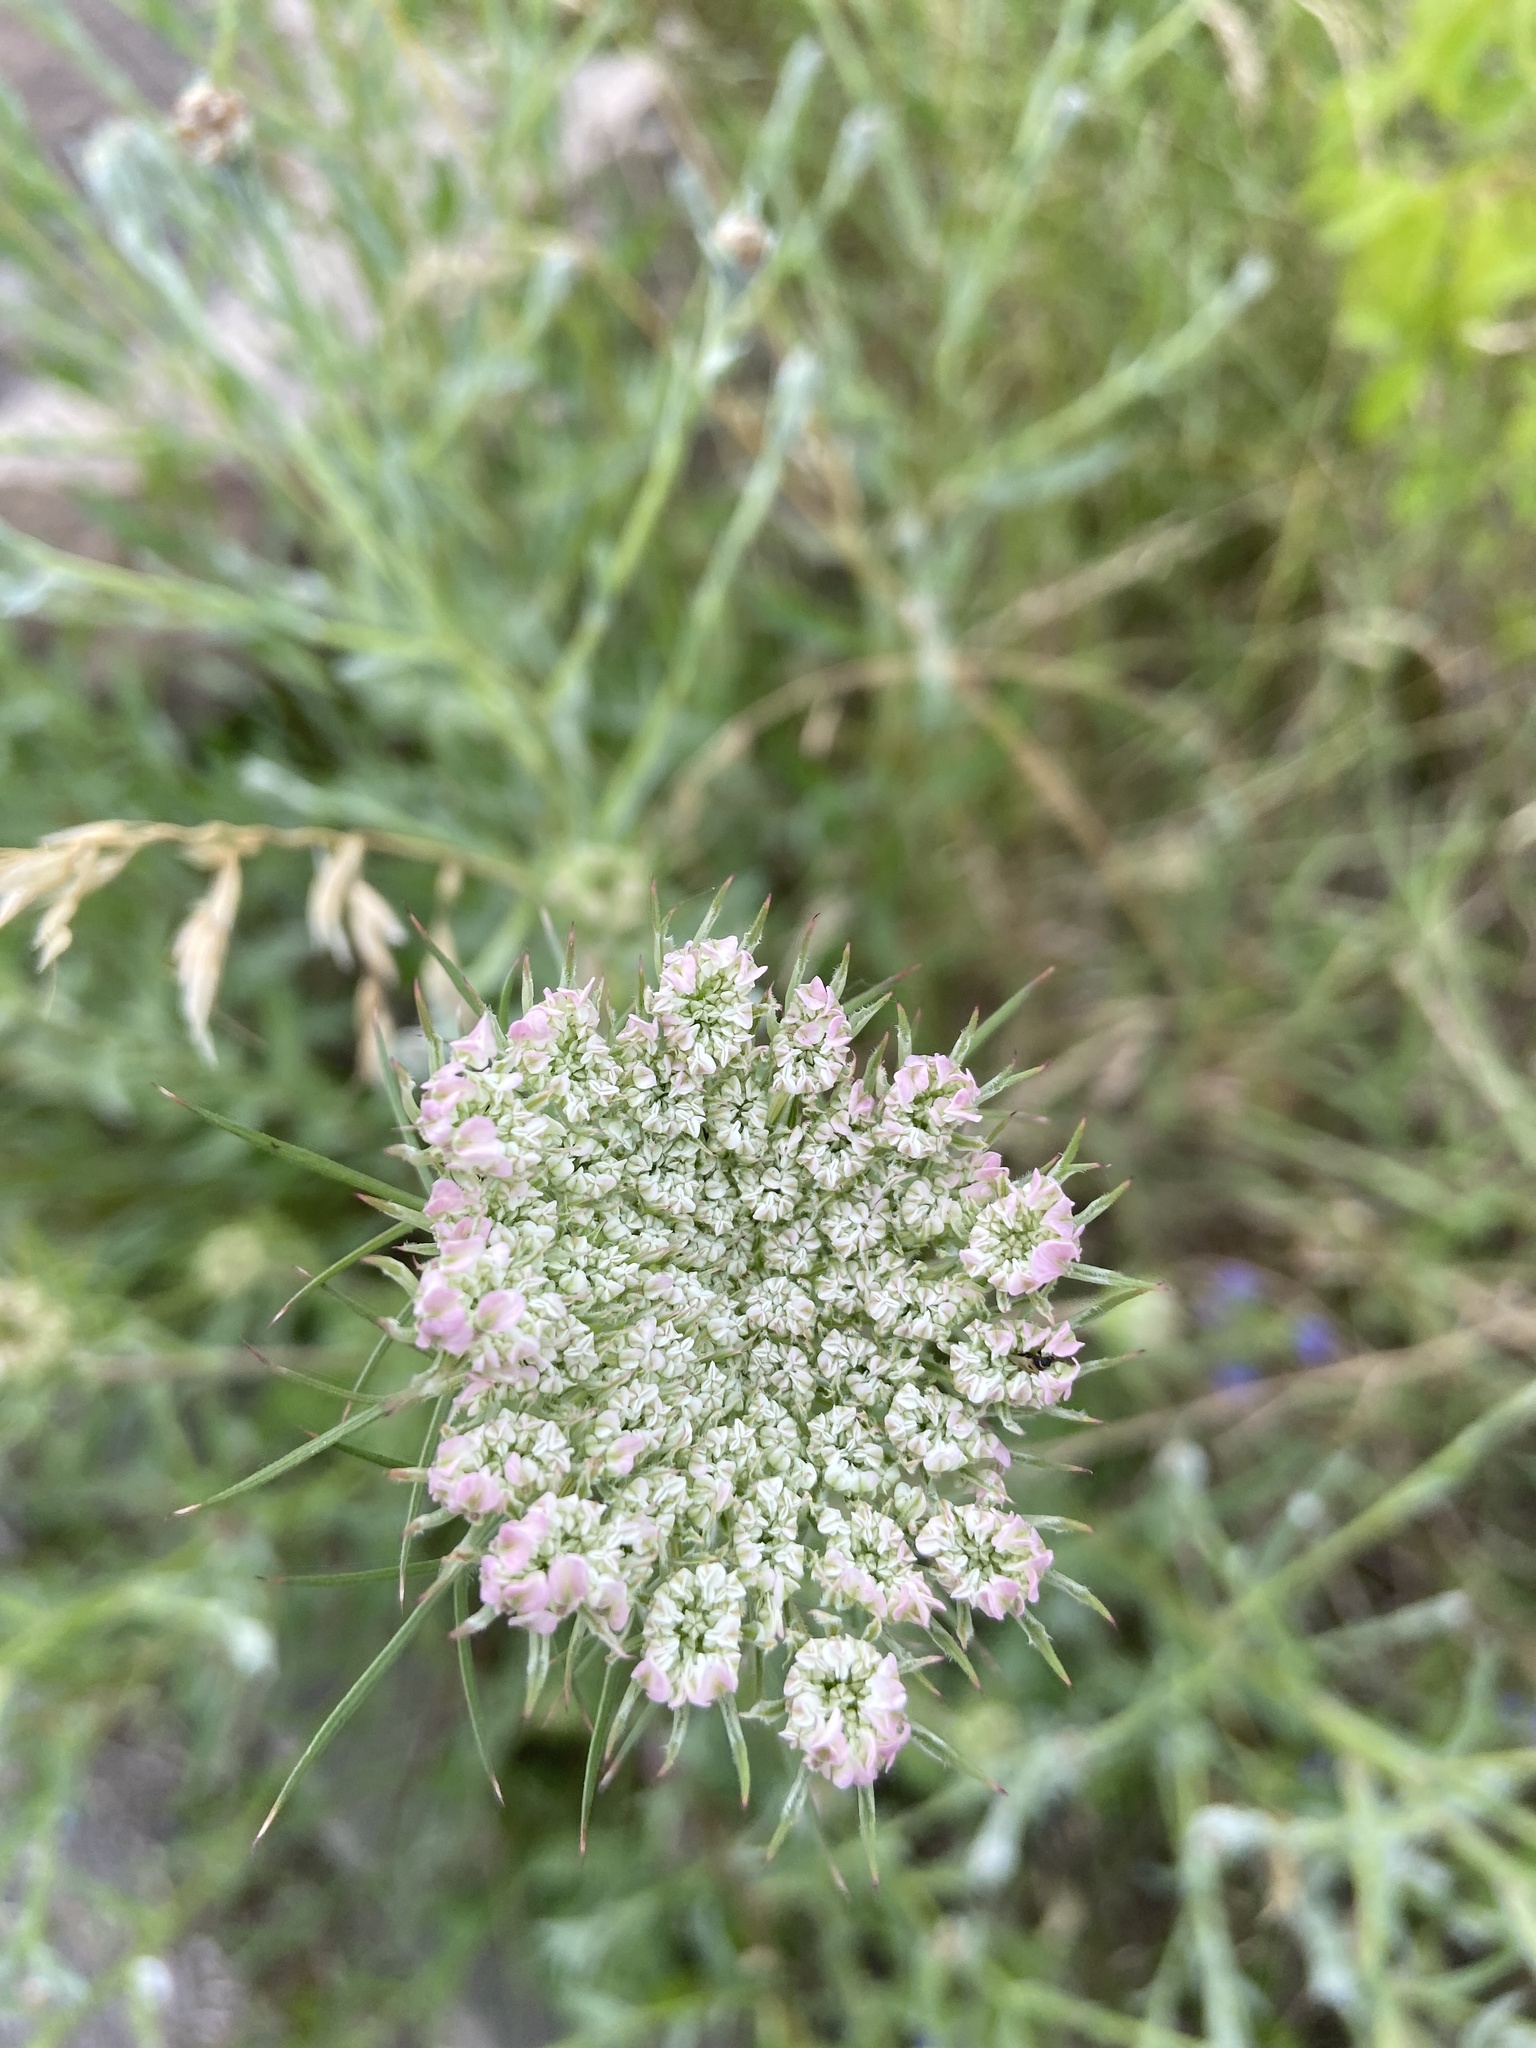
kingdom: Plantae
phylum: Tracheophyta
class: Magnoliopsida
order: Apiales
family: Apiaceae
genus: Daucus
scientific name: Daucus carota
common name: Wild carrot
